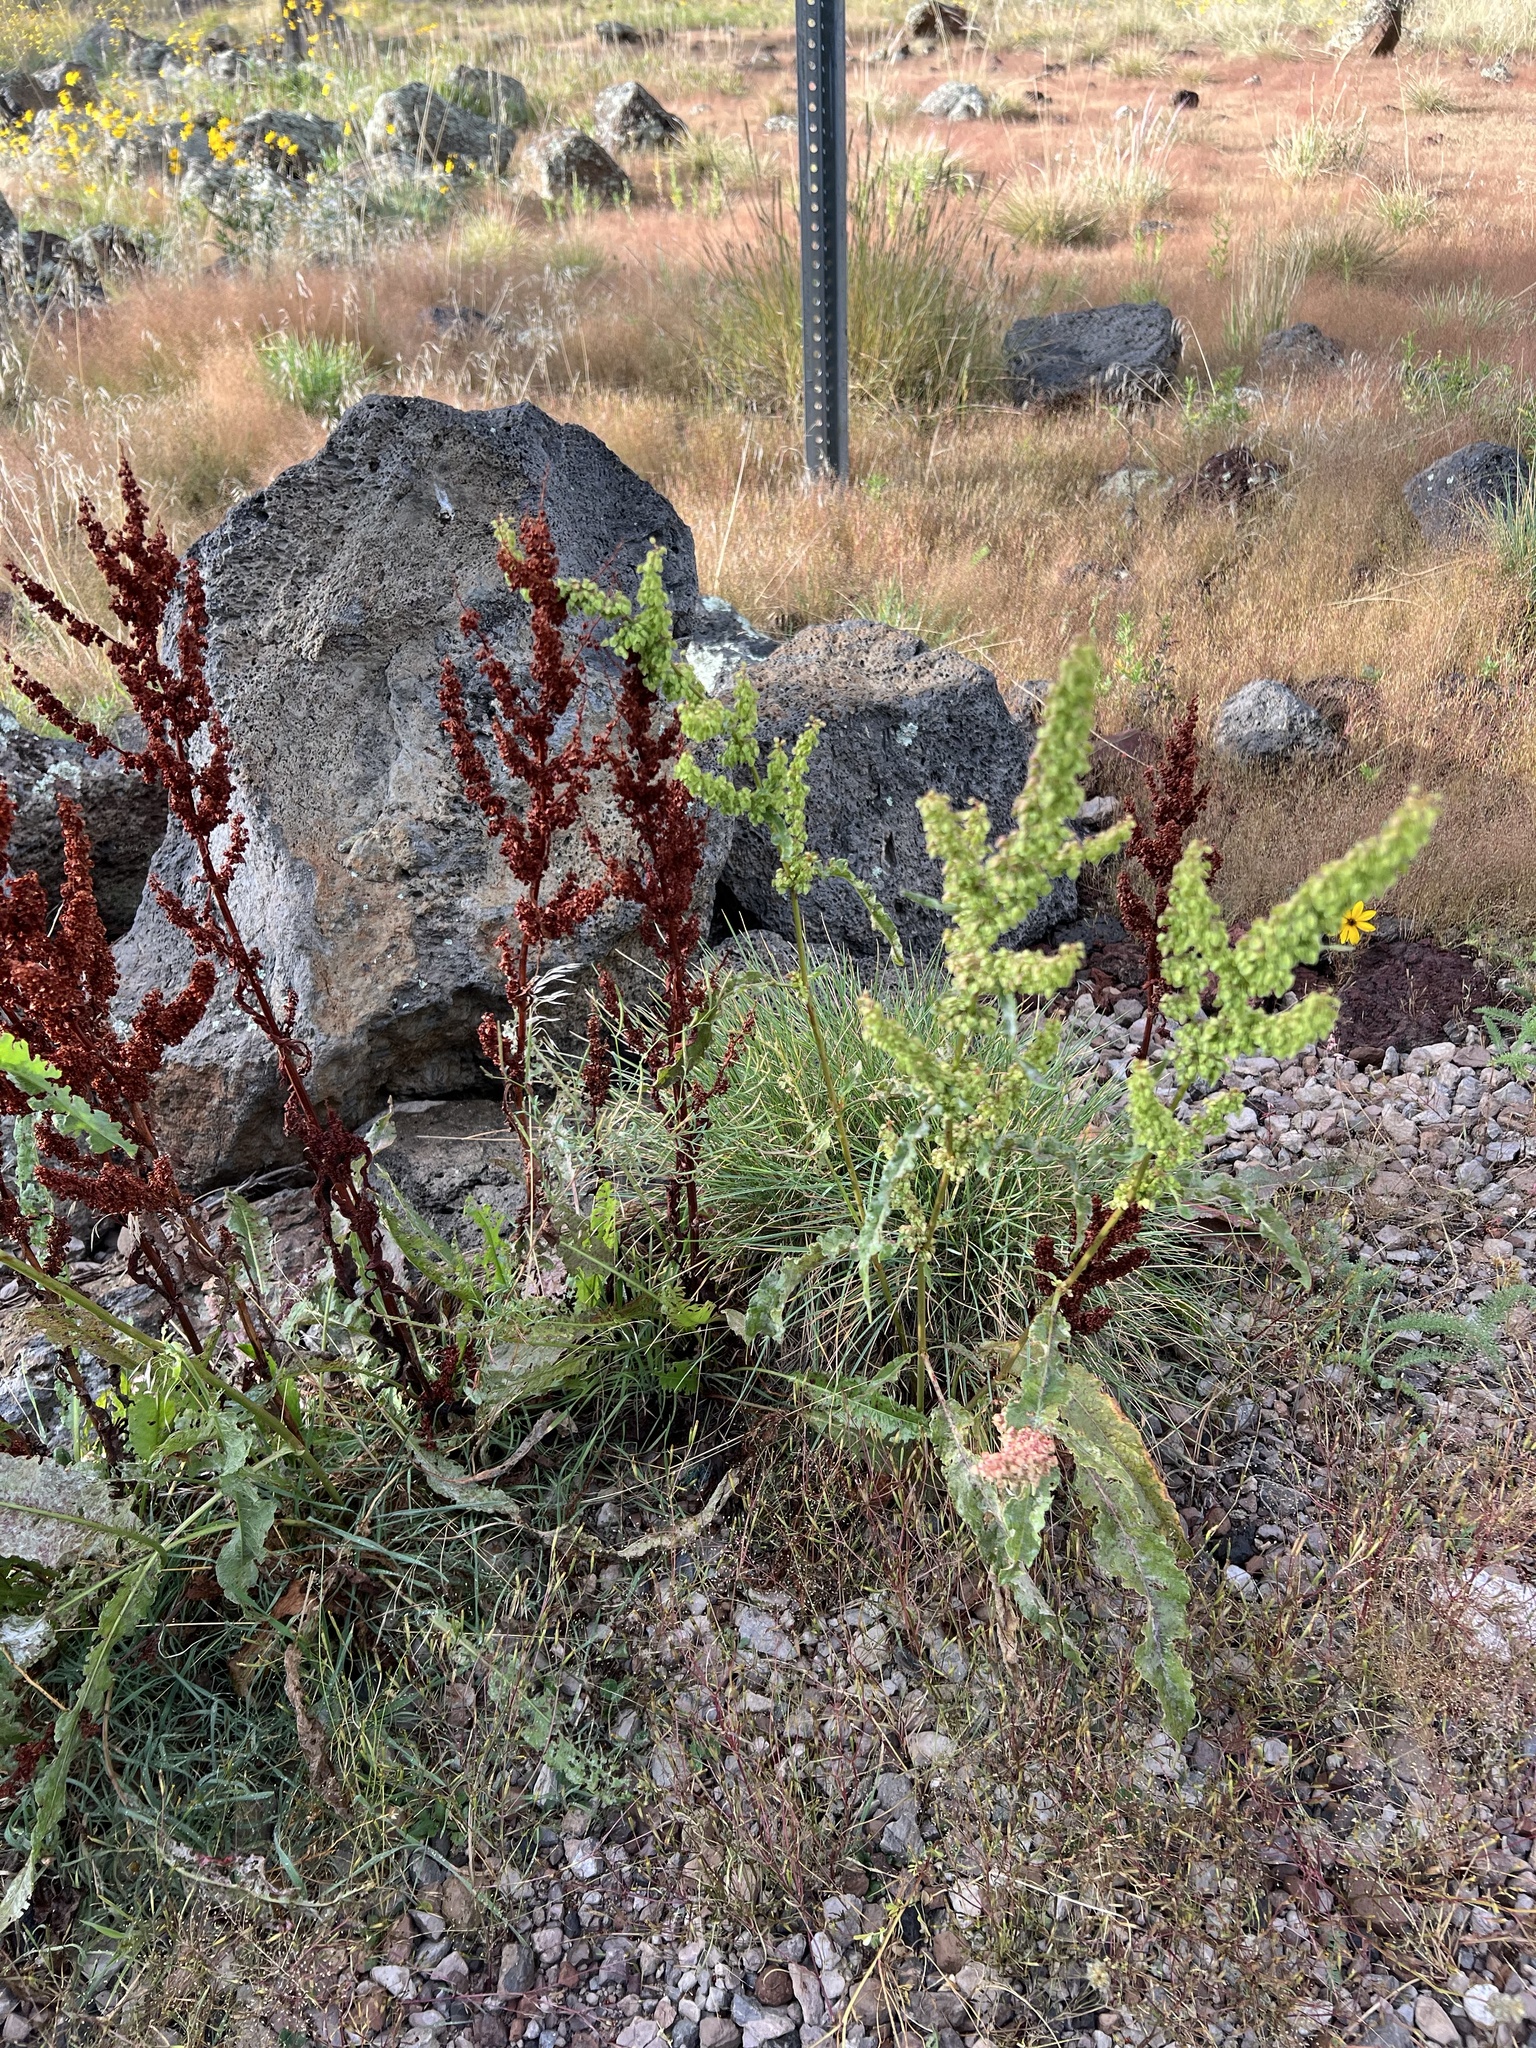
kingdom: Plantae
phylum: Tracheophyta
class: Magnoliopsida
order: Caryophyllales
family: Polygonaceae
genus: Rumex
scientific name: Rumex crispus
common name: Curled dock
